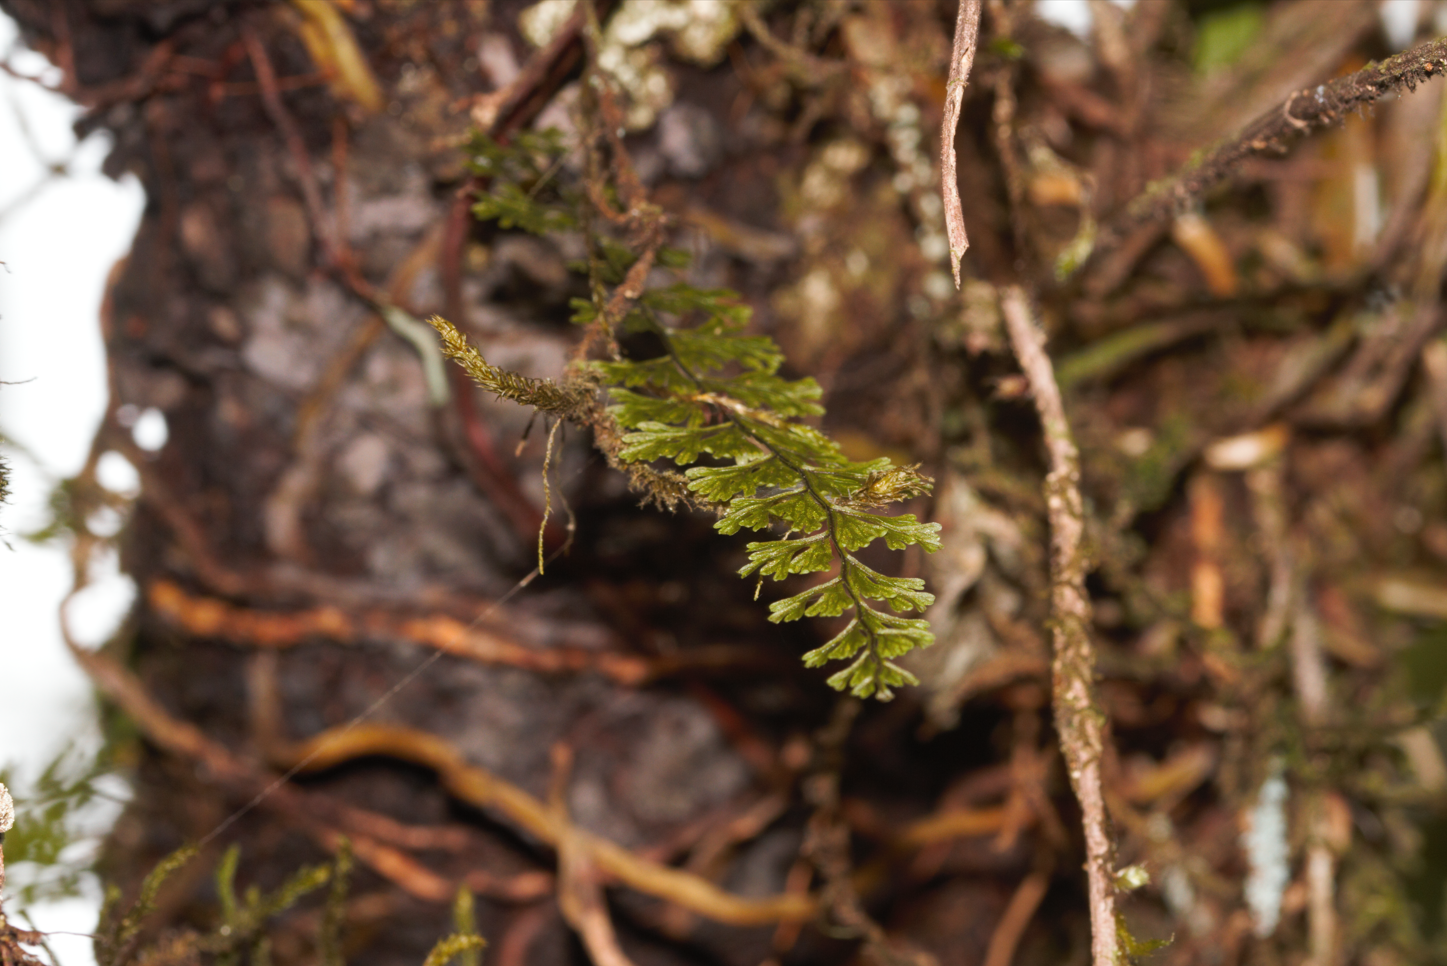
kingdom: Plantae
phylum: Tracheophyta
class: Polypodiopsida
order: Hymenophyllales
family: Hymenophyllaceae
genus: Hymenophyllum
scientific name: Hymenophyllum
